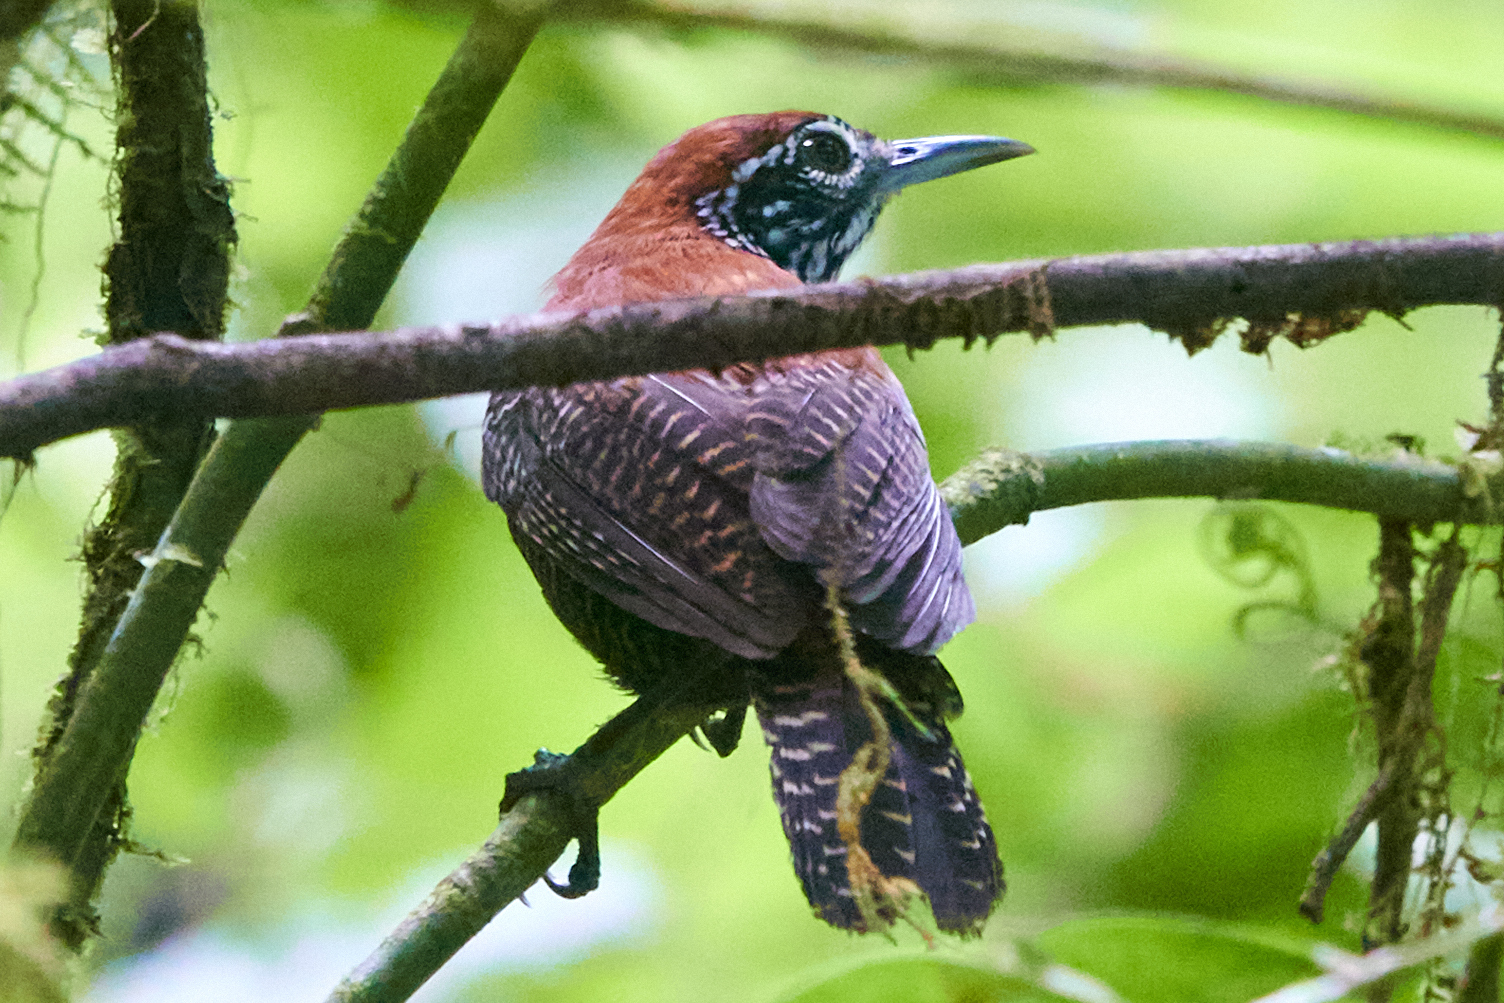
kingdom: Animalia
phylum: Chordata
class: Aves
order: Passeriformes
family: Troglodytidae
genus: Cantorchilus
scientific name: Cantorchilus semibadius
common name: Riverside wren
